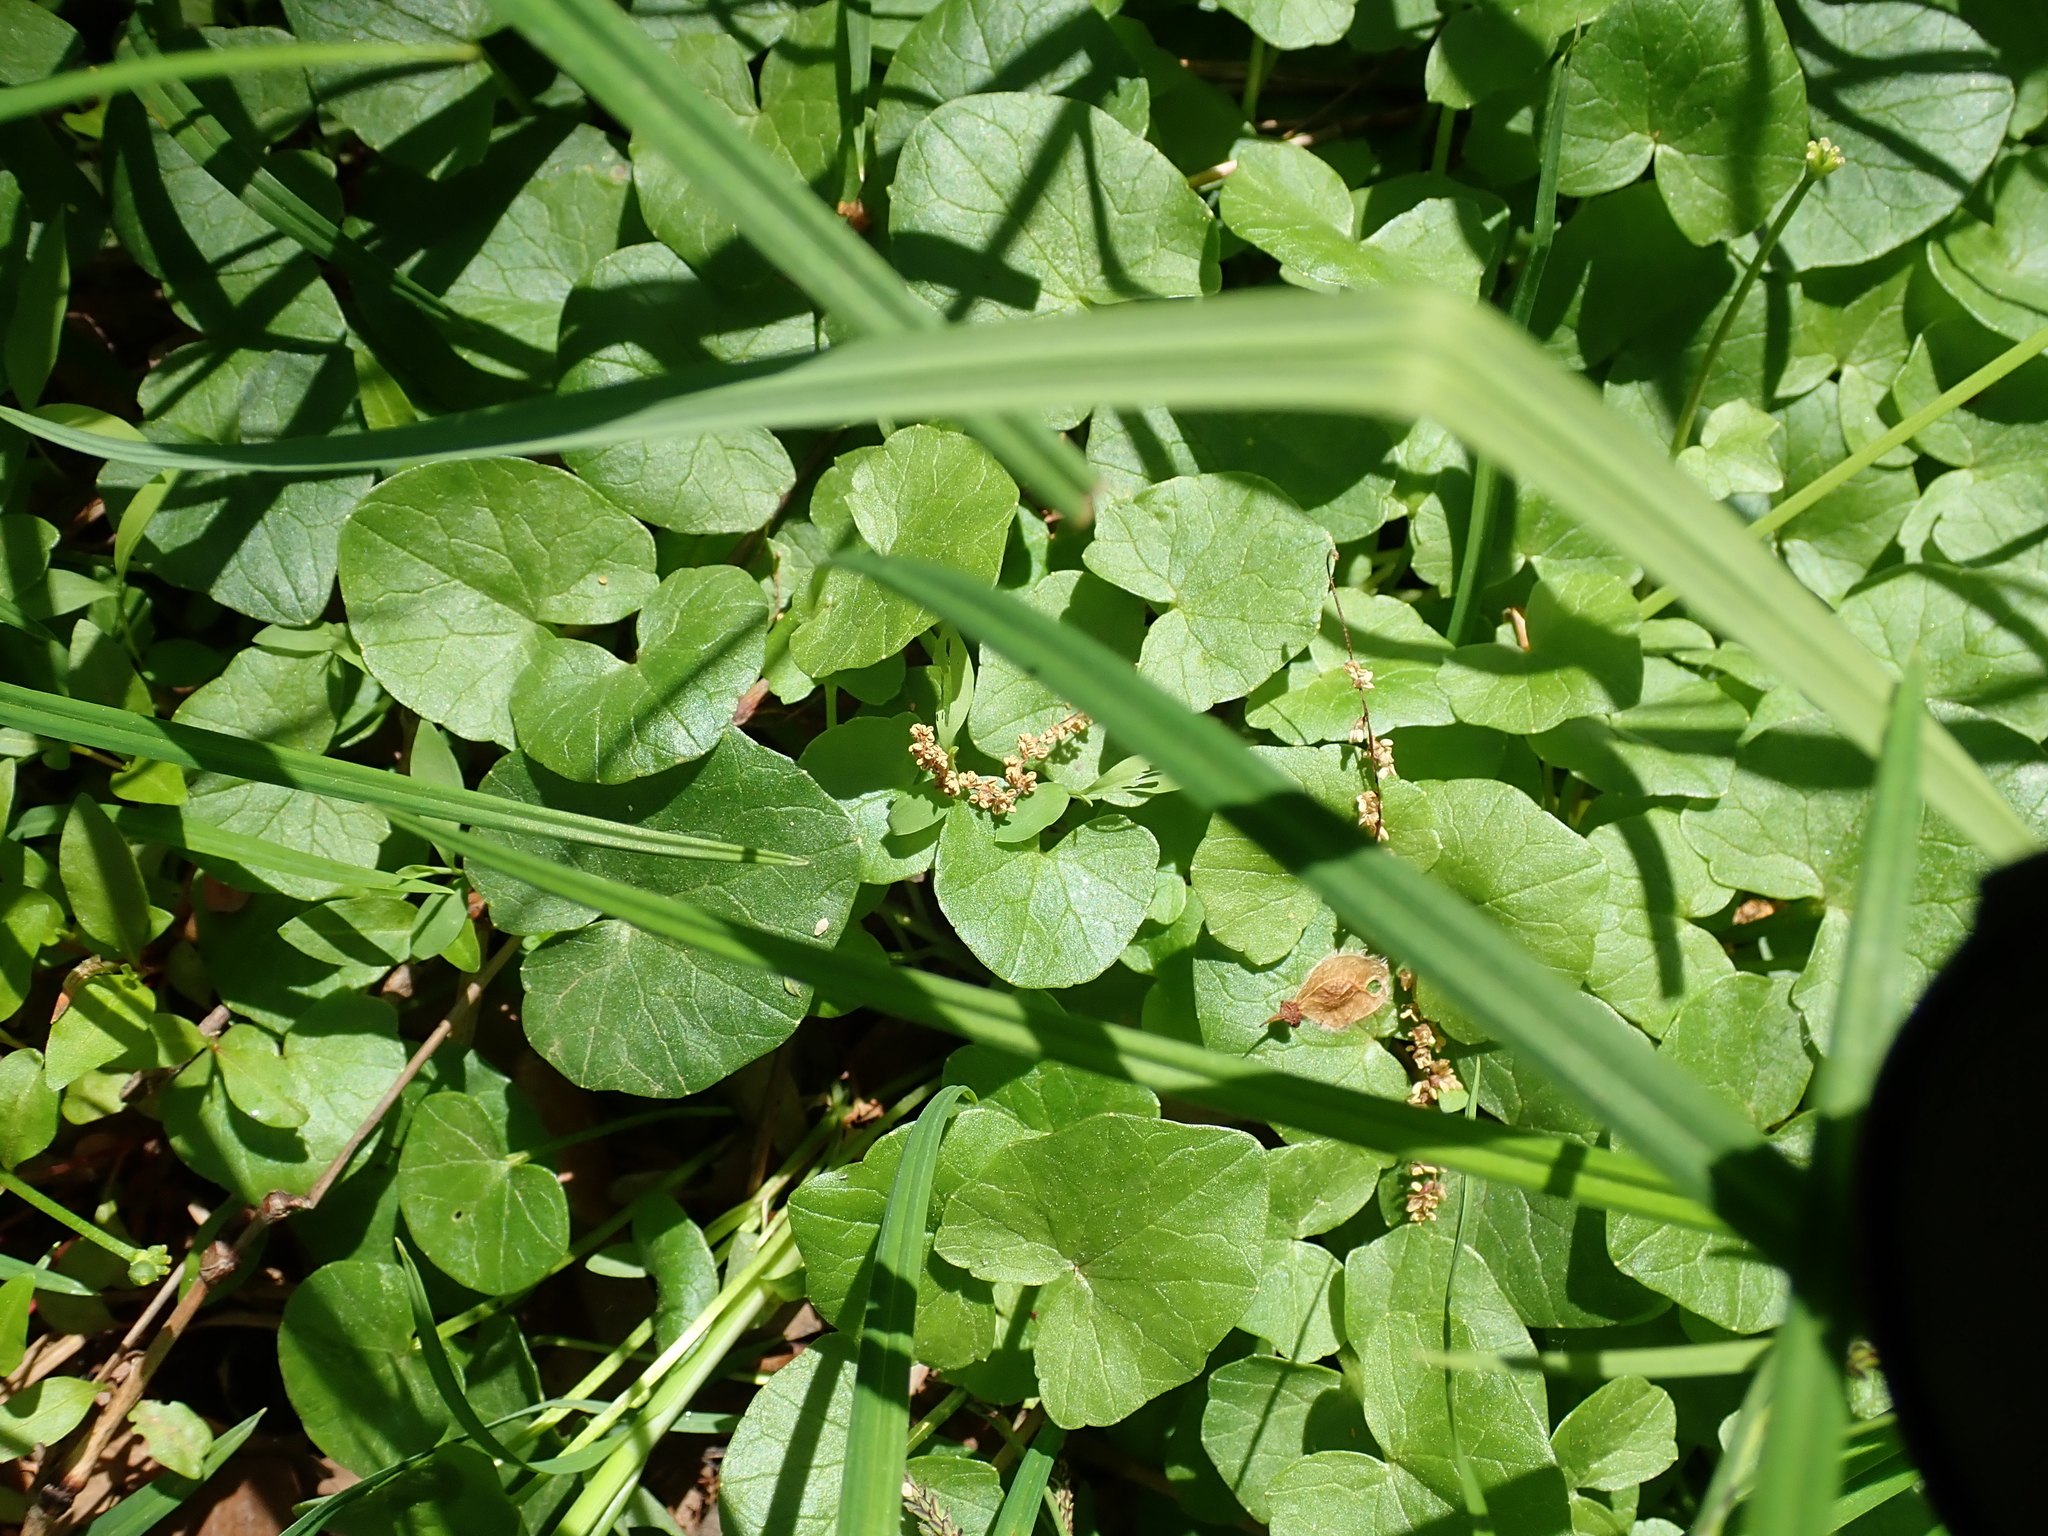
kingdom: Plantae
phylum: Tracheophyta
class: Magnoliopsida
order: Ranunculales
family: Ranunculaceae
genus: Ficaria
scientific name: Ficaria verna
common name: Lesser celandine
